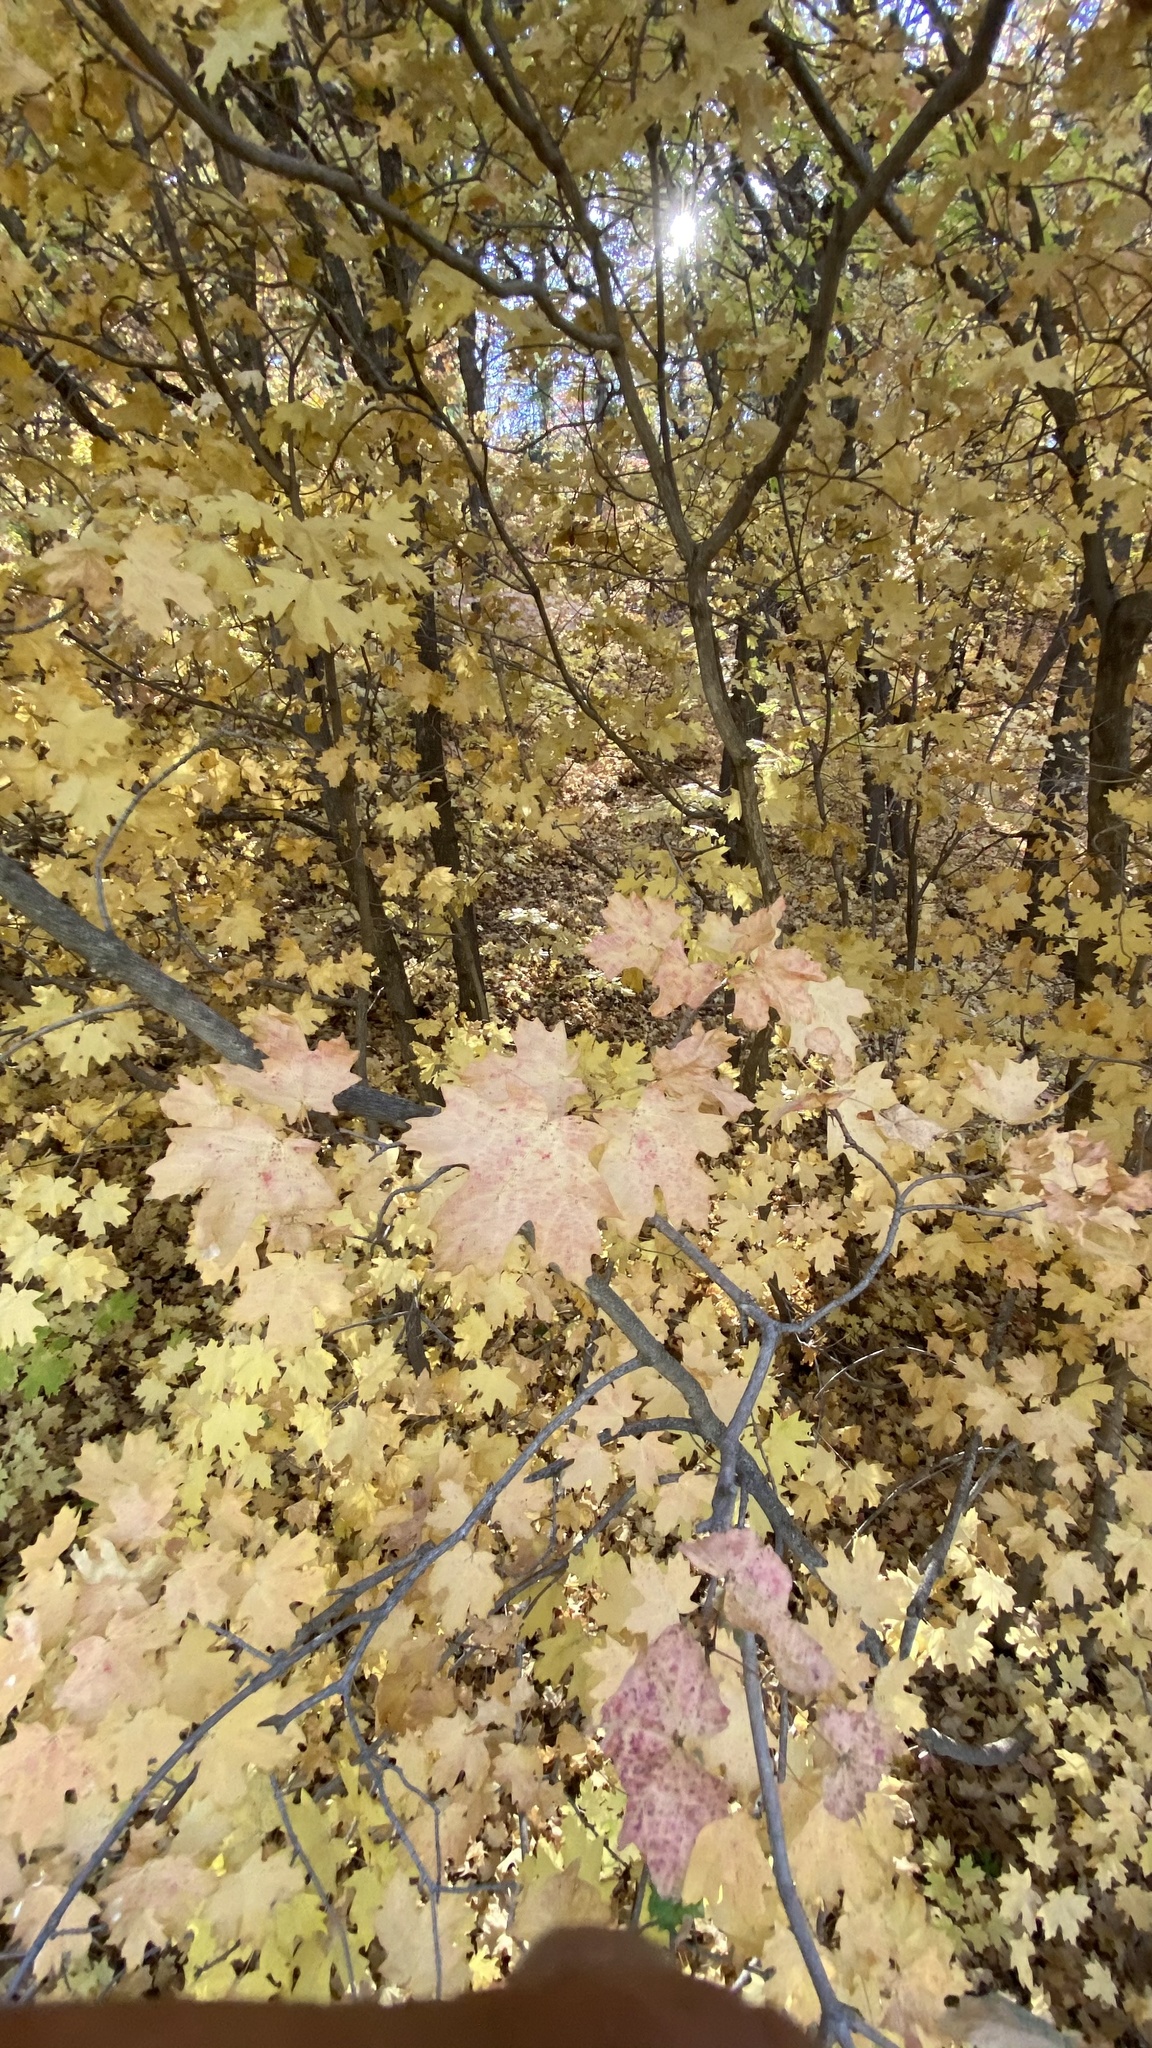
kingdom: Plantae
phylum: Tracheophyta
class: Magnoliopsida
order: Sapindales
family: Sapindaceae
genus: Acer
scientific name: Acer grandidentatum
